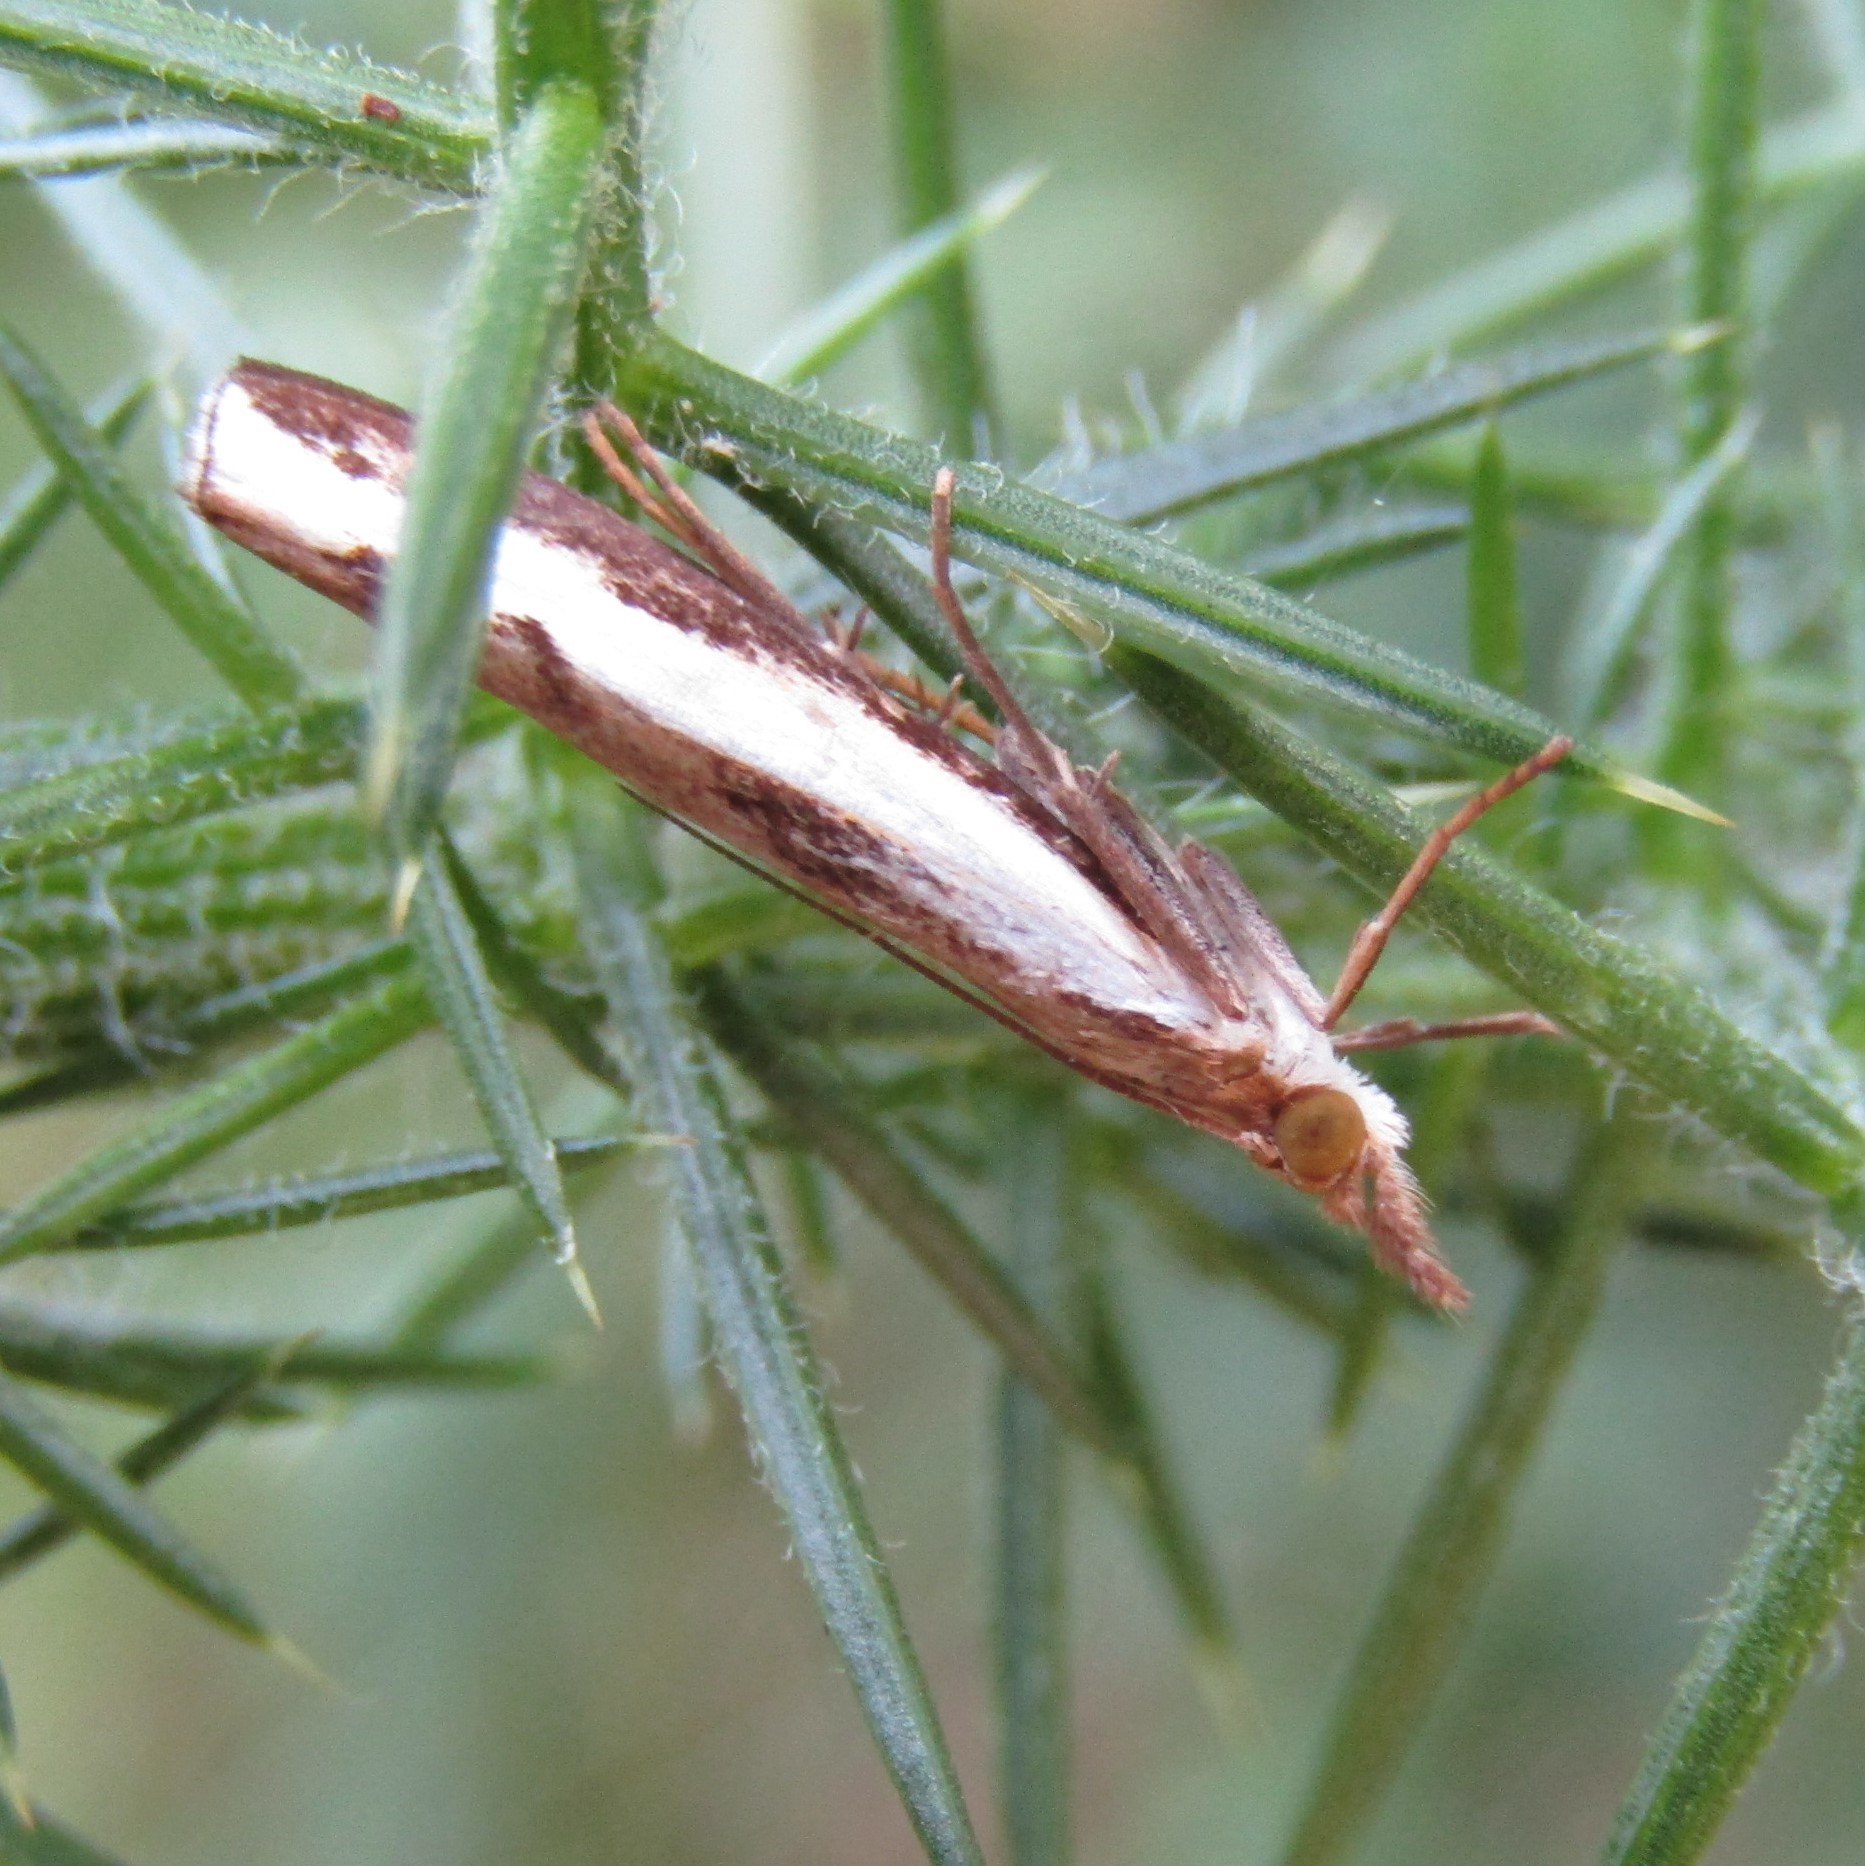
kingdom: Animalia
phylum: Arthropoda
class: Insecta
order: Lepidoptera
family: Crambidae
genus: Orocrambus
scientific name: Orocrambus flexuosellus
